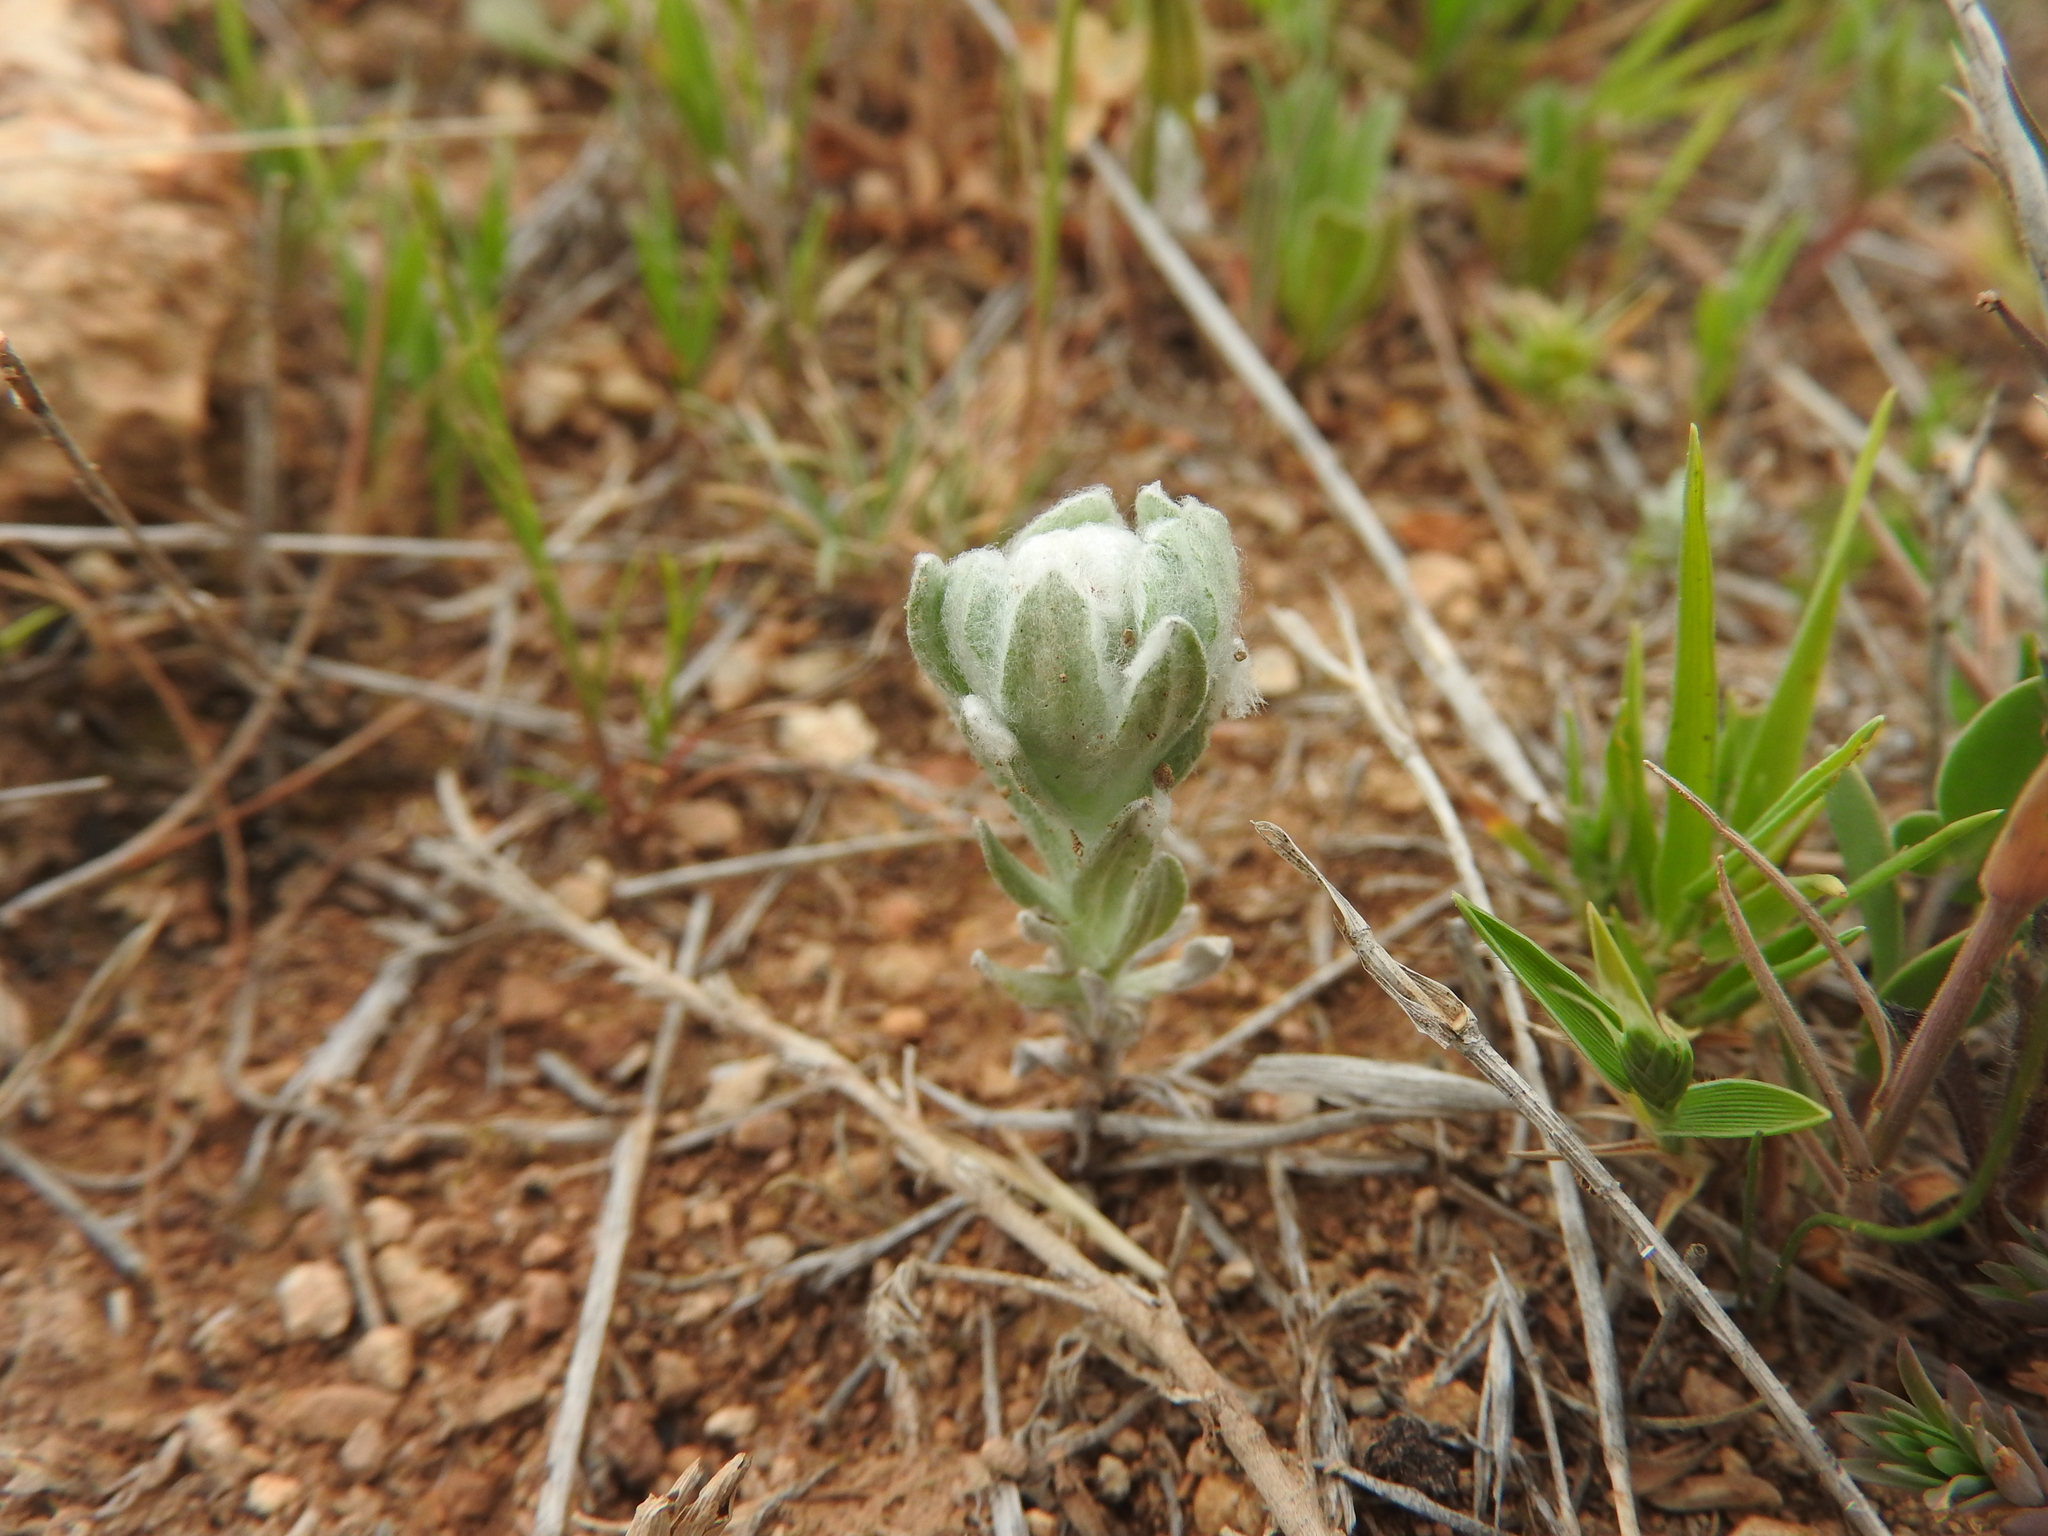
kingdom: Plantae
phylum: Tracheophyta
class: Magnoliopsida
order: Asterales
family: Asteraceae
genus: Bombycilaena
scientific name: Bombycilaena discolor
